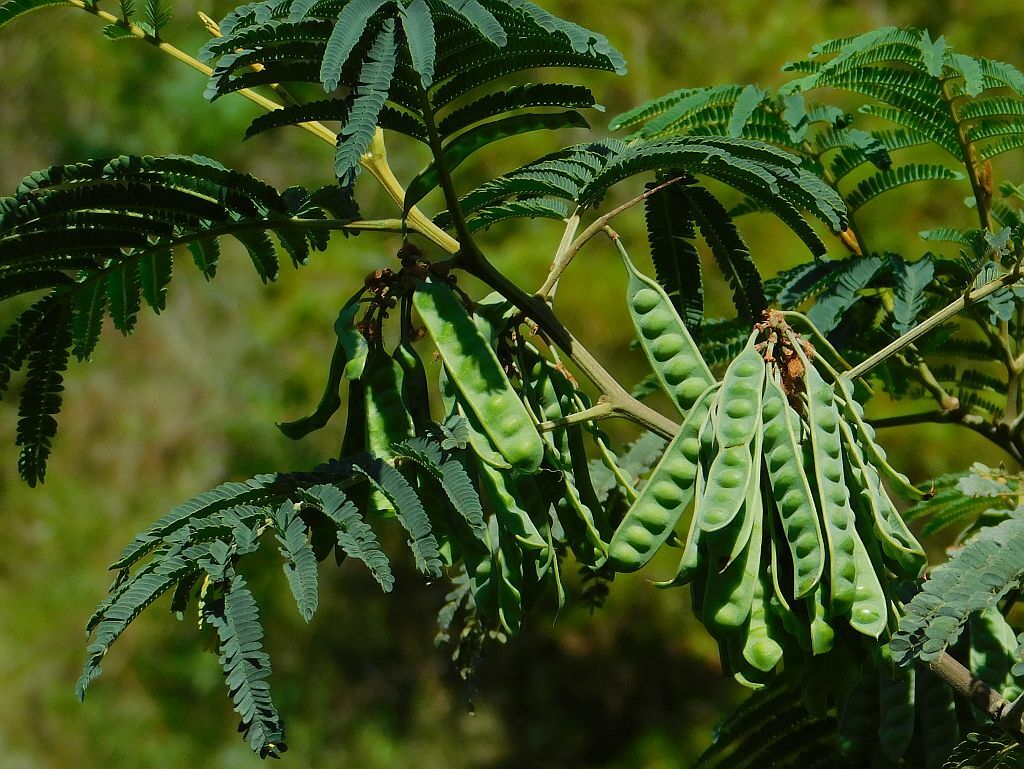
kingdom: Plantae
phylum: Tracheophyta
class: Magnoliopsida
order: Fabales
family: Fabaceae
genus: Paraserianthes
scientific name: Paraserianthes lophantha
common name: Plume albizia
